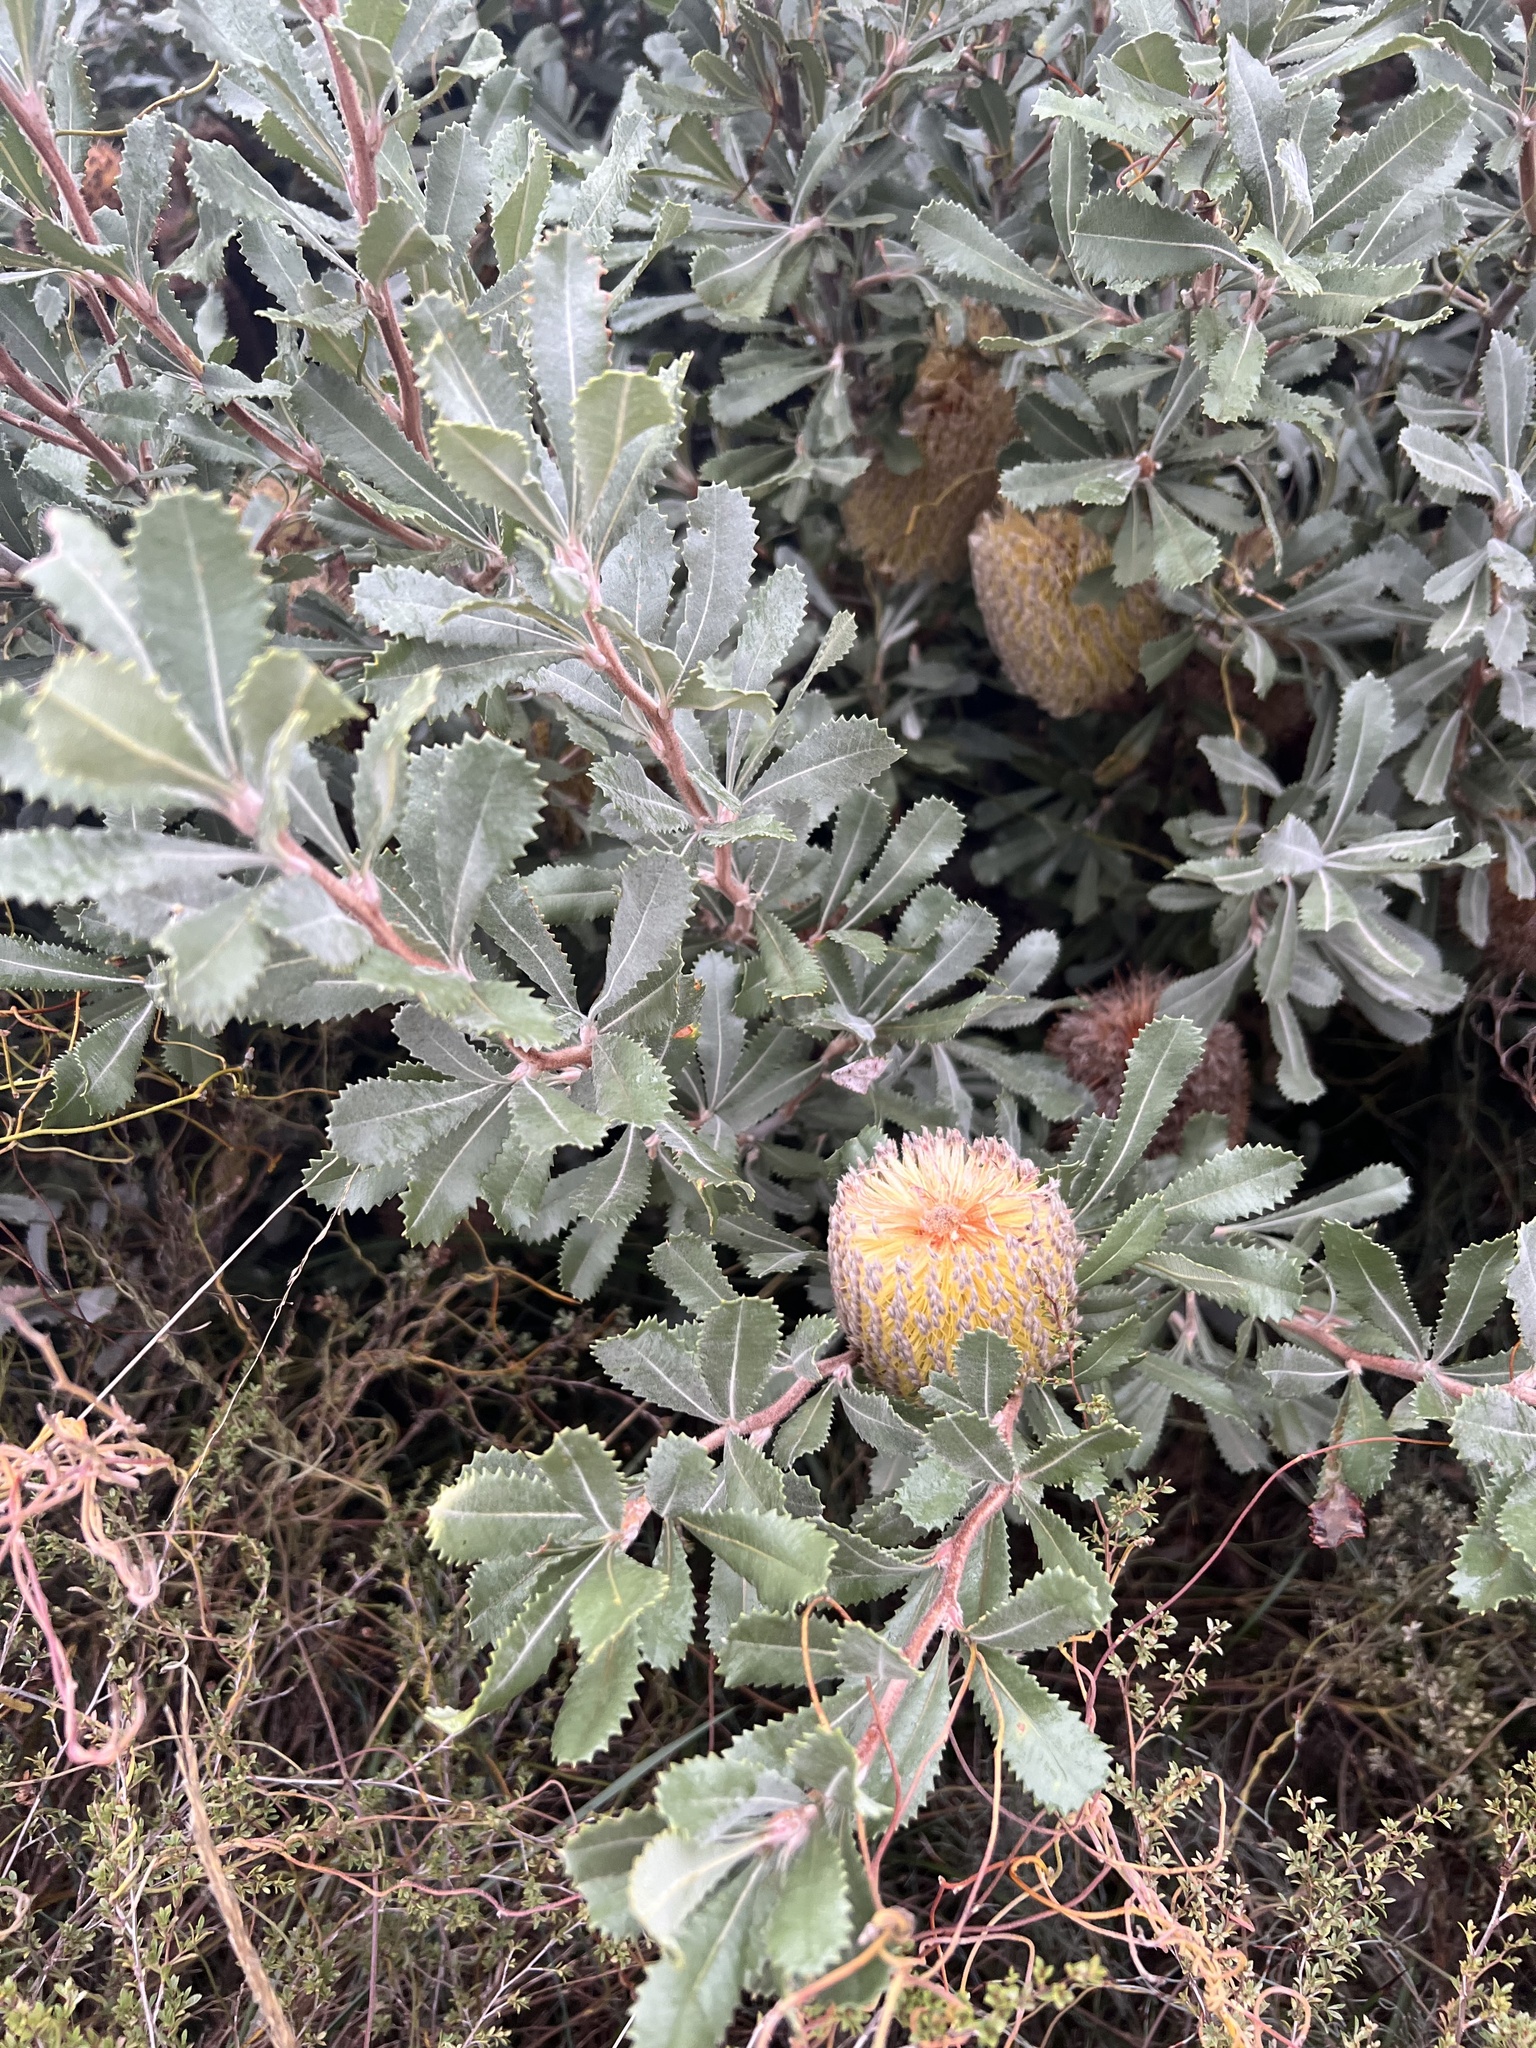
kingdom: Plantae
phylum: Tracheophyta
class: Magnoliopsida
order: Proteales
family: Proteaceae
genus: Banksia
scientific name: Banksia ornata
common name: Desert banksia
